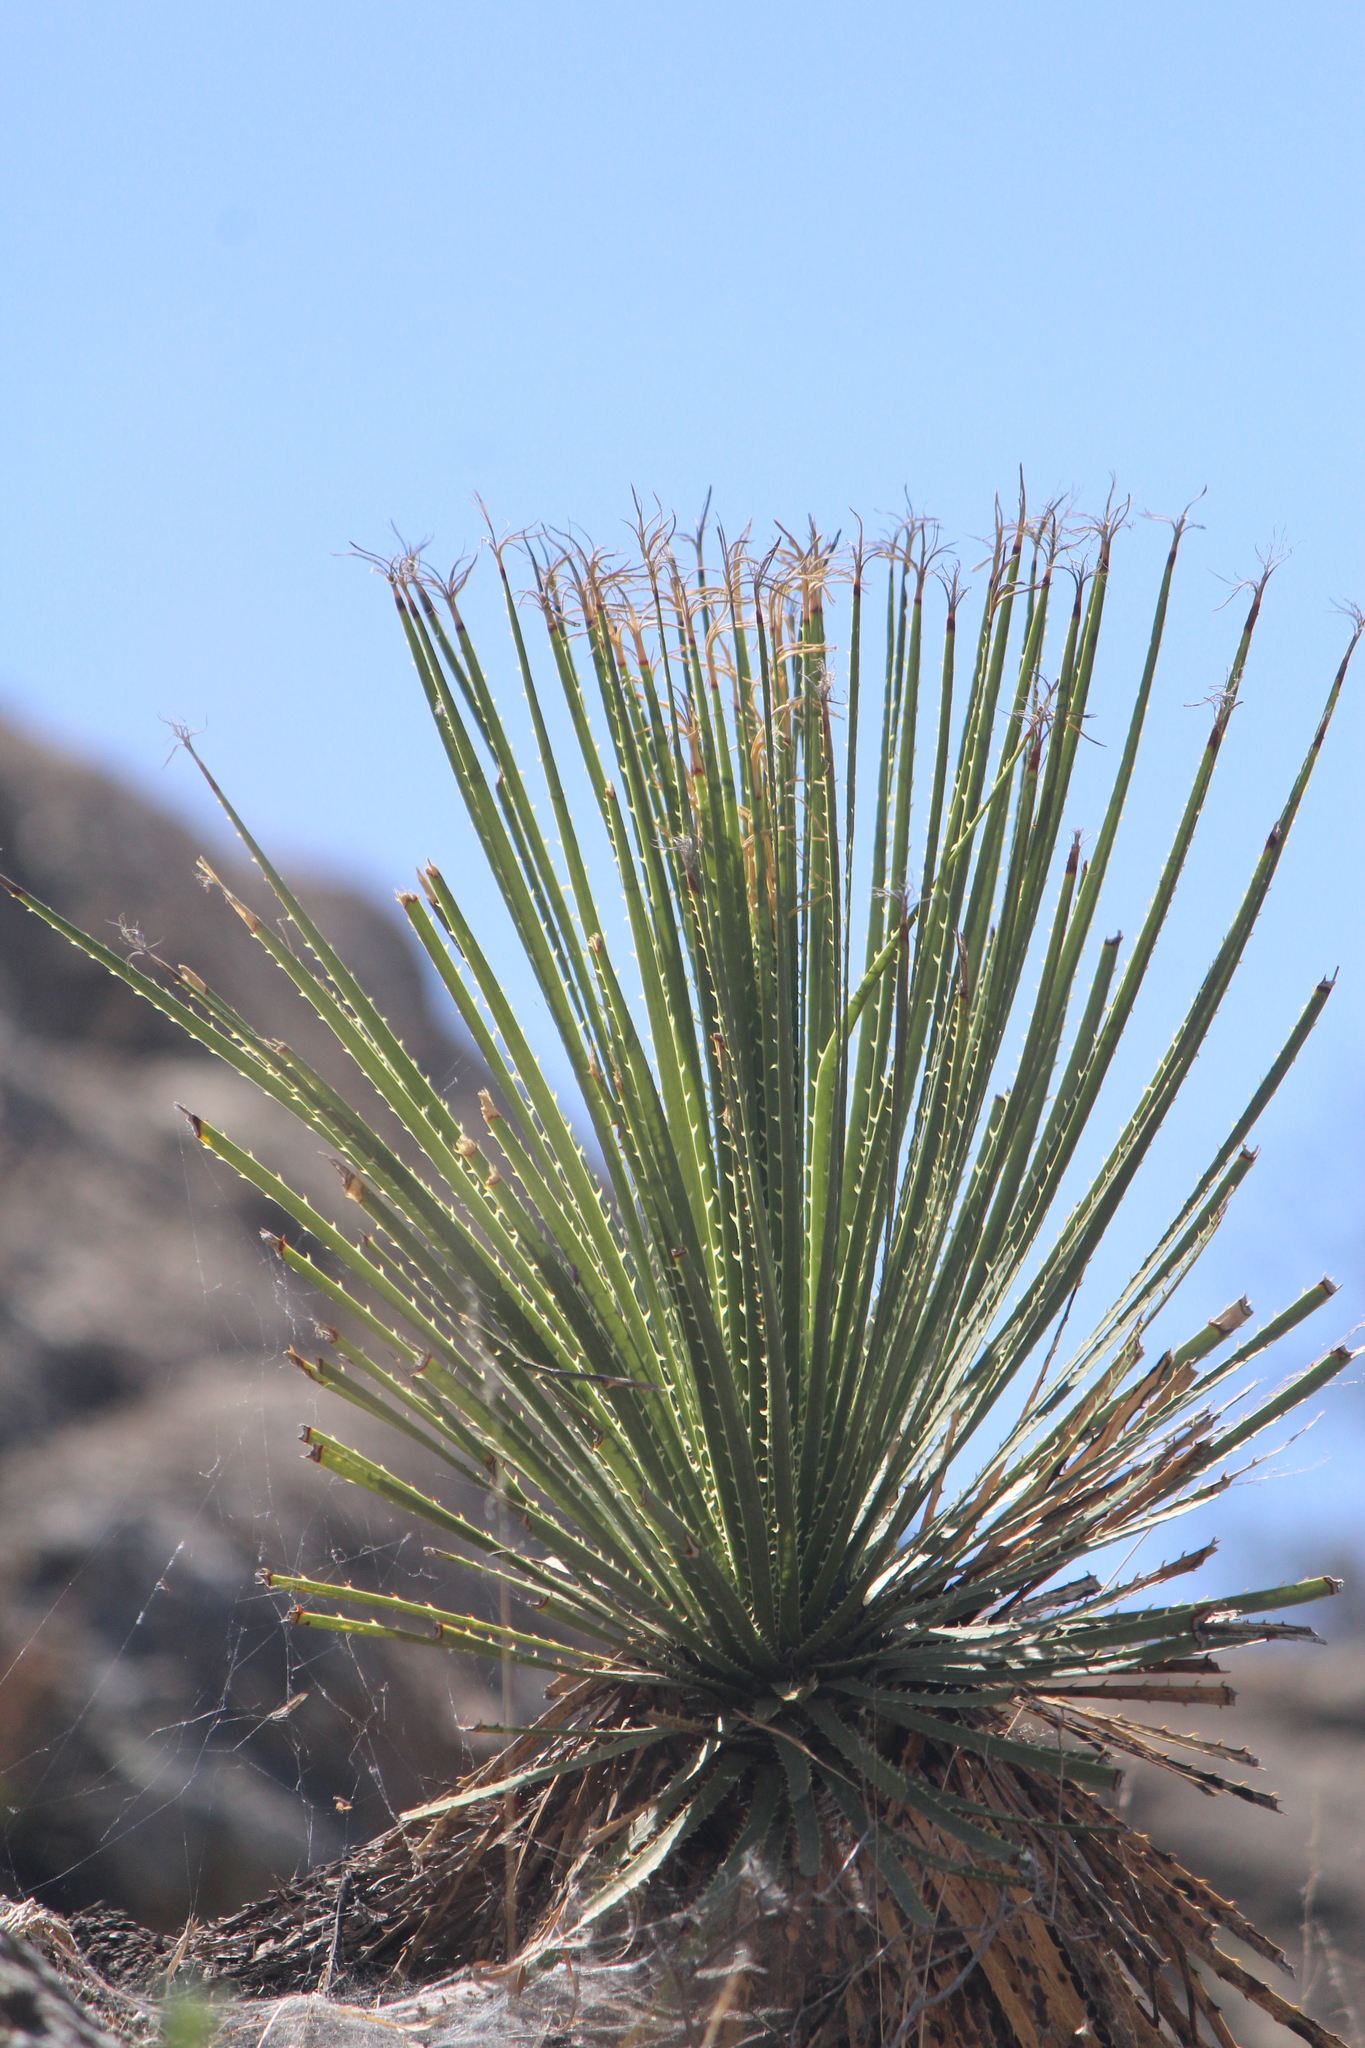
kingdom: Plantae
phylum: Tracheophyta
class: Liliopsida
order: Asparagales
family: Asparagaceae
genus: Dasylirion
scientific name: Dasylirion acrotrichum
